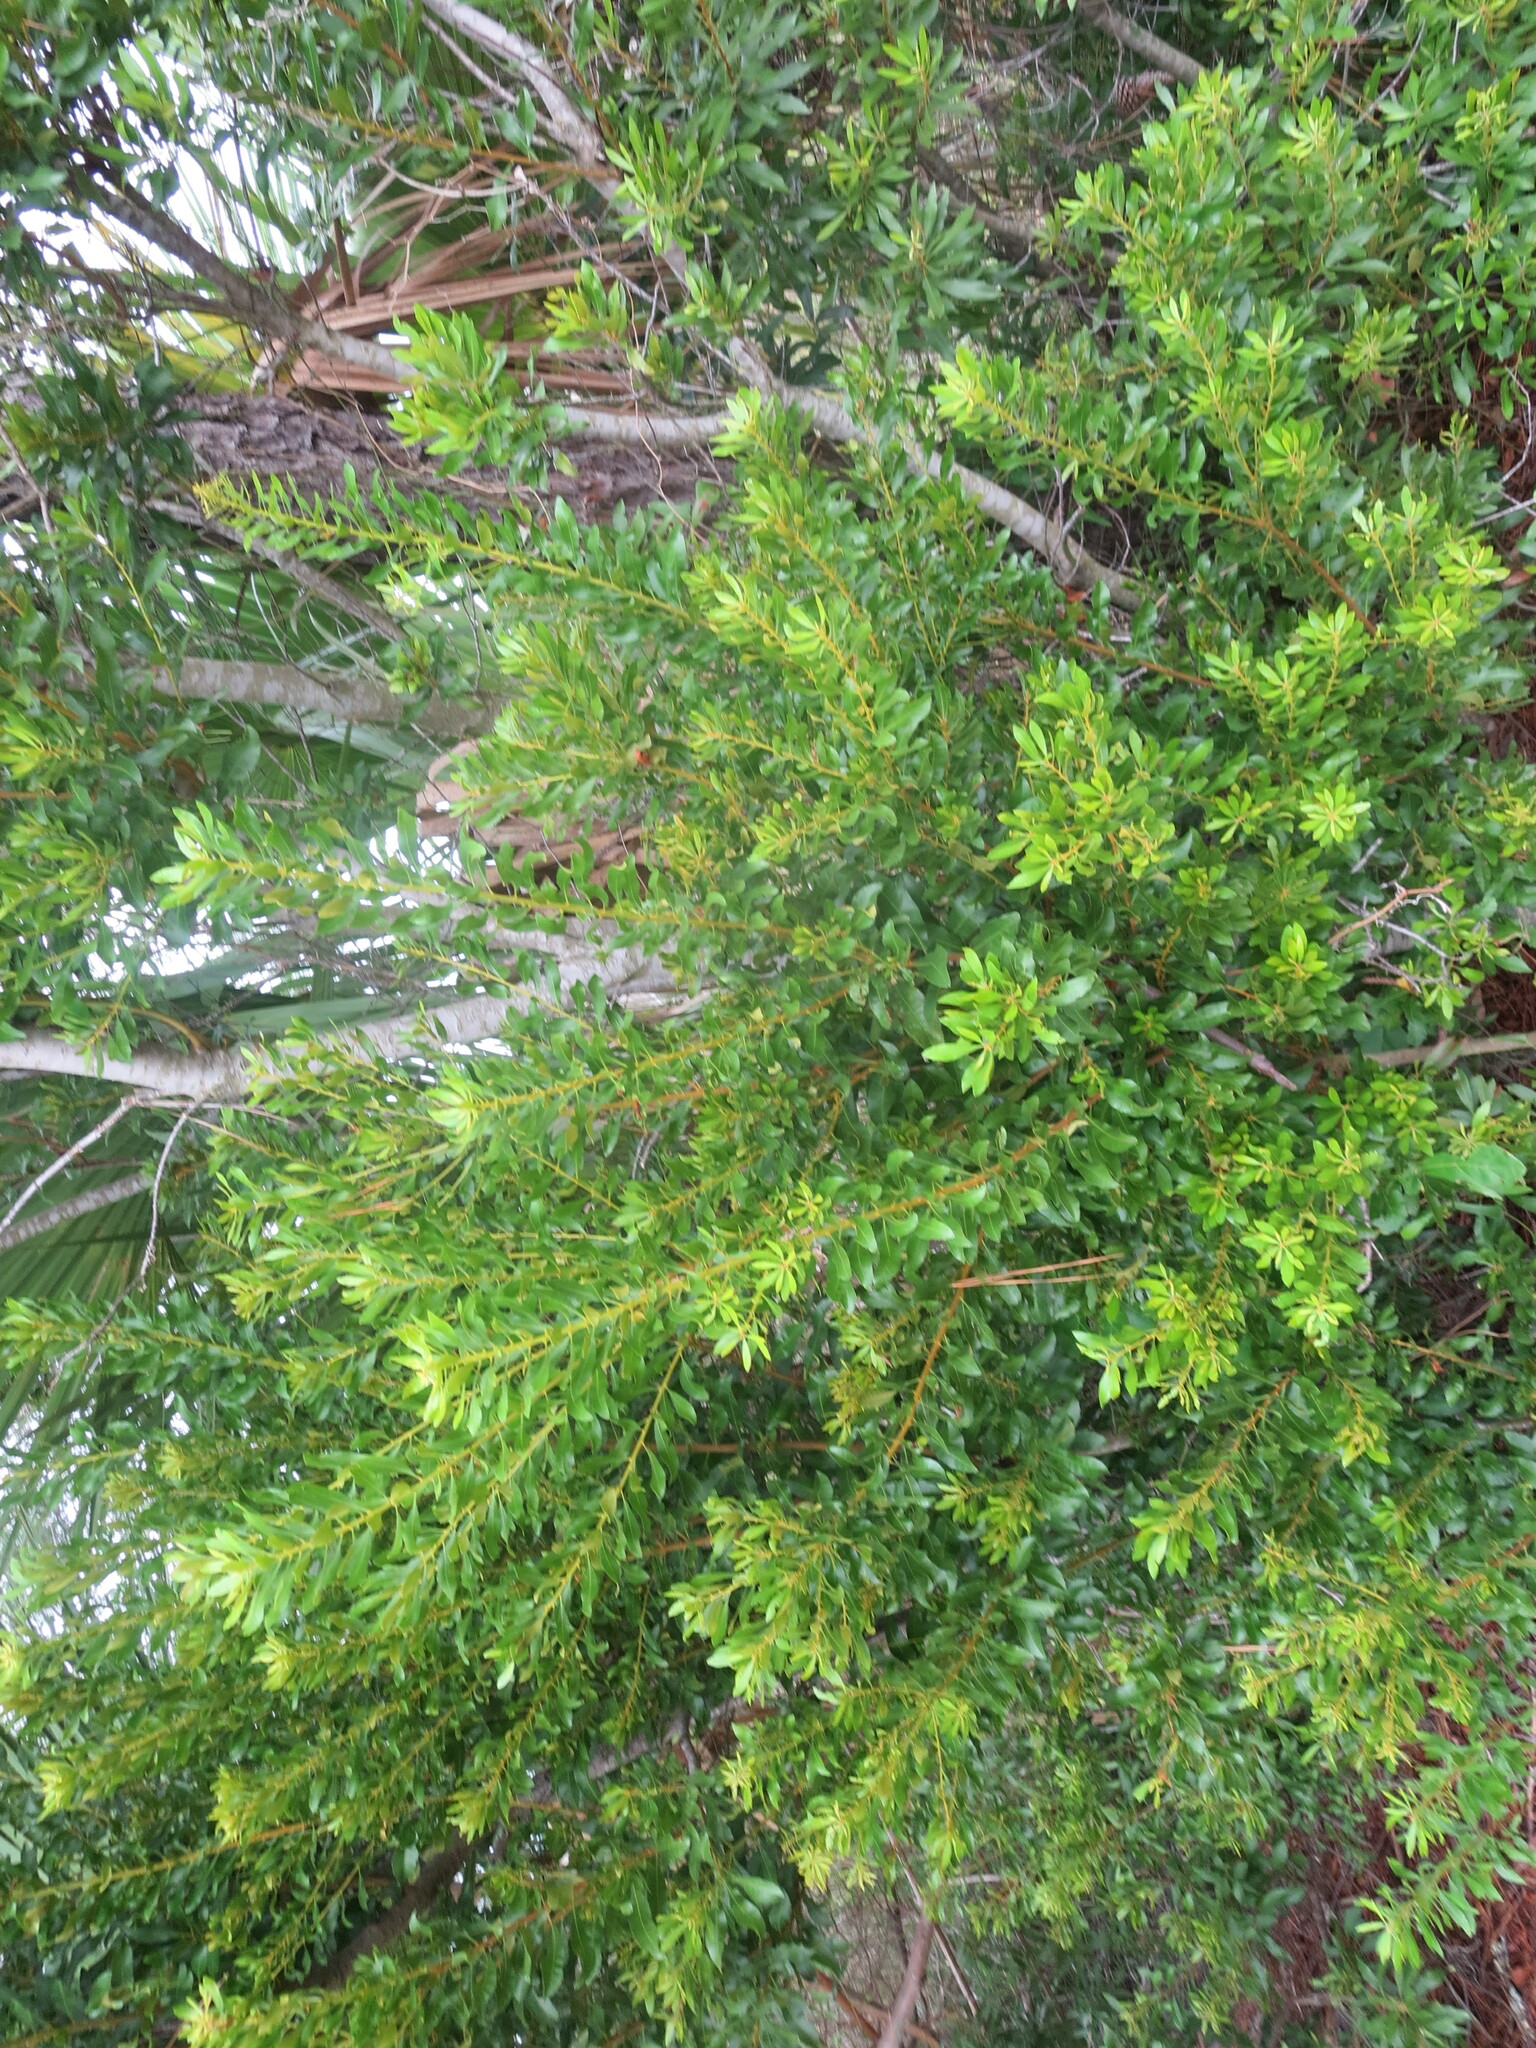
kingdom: Plantae
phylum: Tracheophyta
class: Magnoliopsida
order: Fagales
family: Myricaceae
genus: Morella
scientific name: Morella cerifera
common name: Wax myrtle
